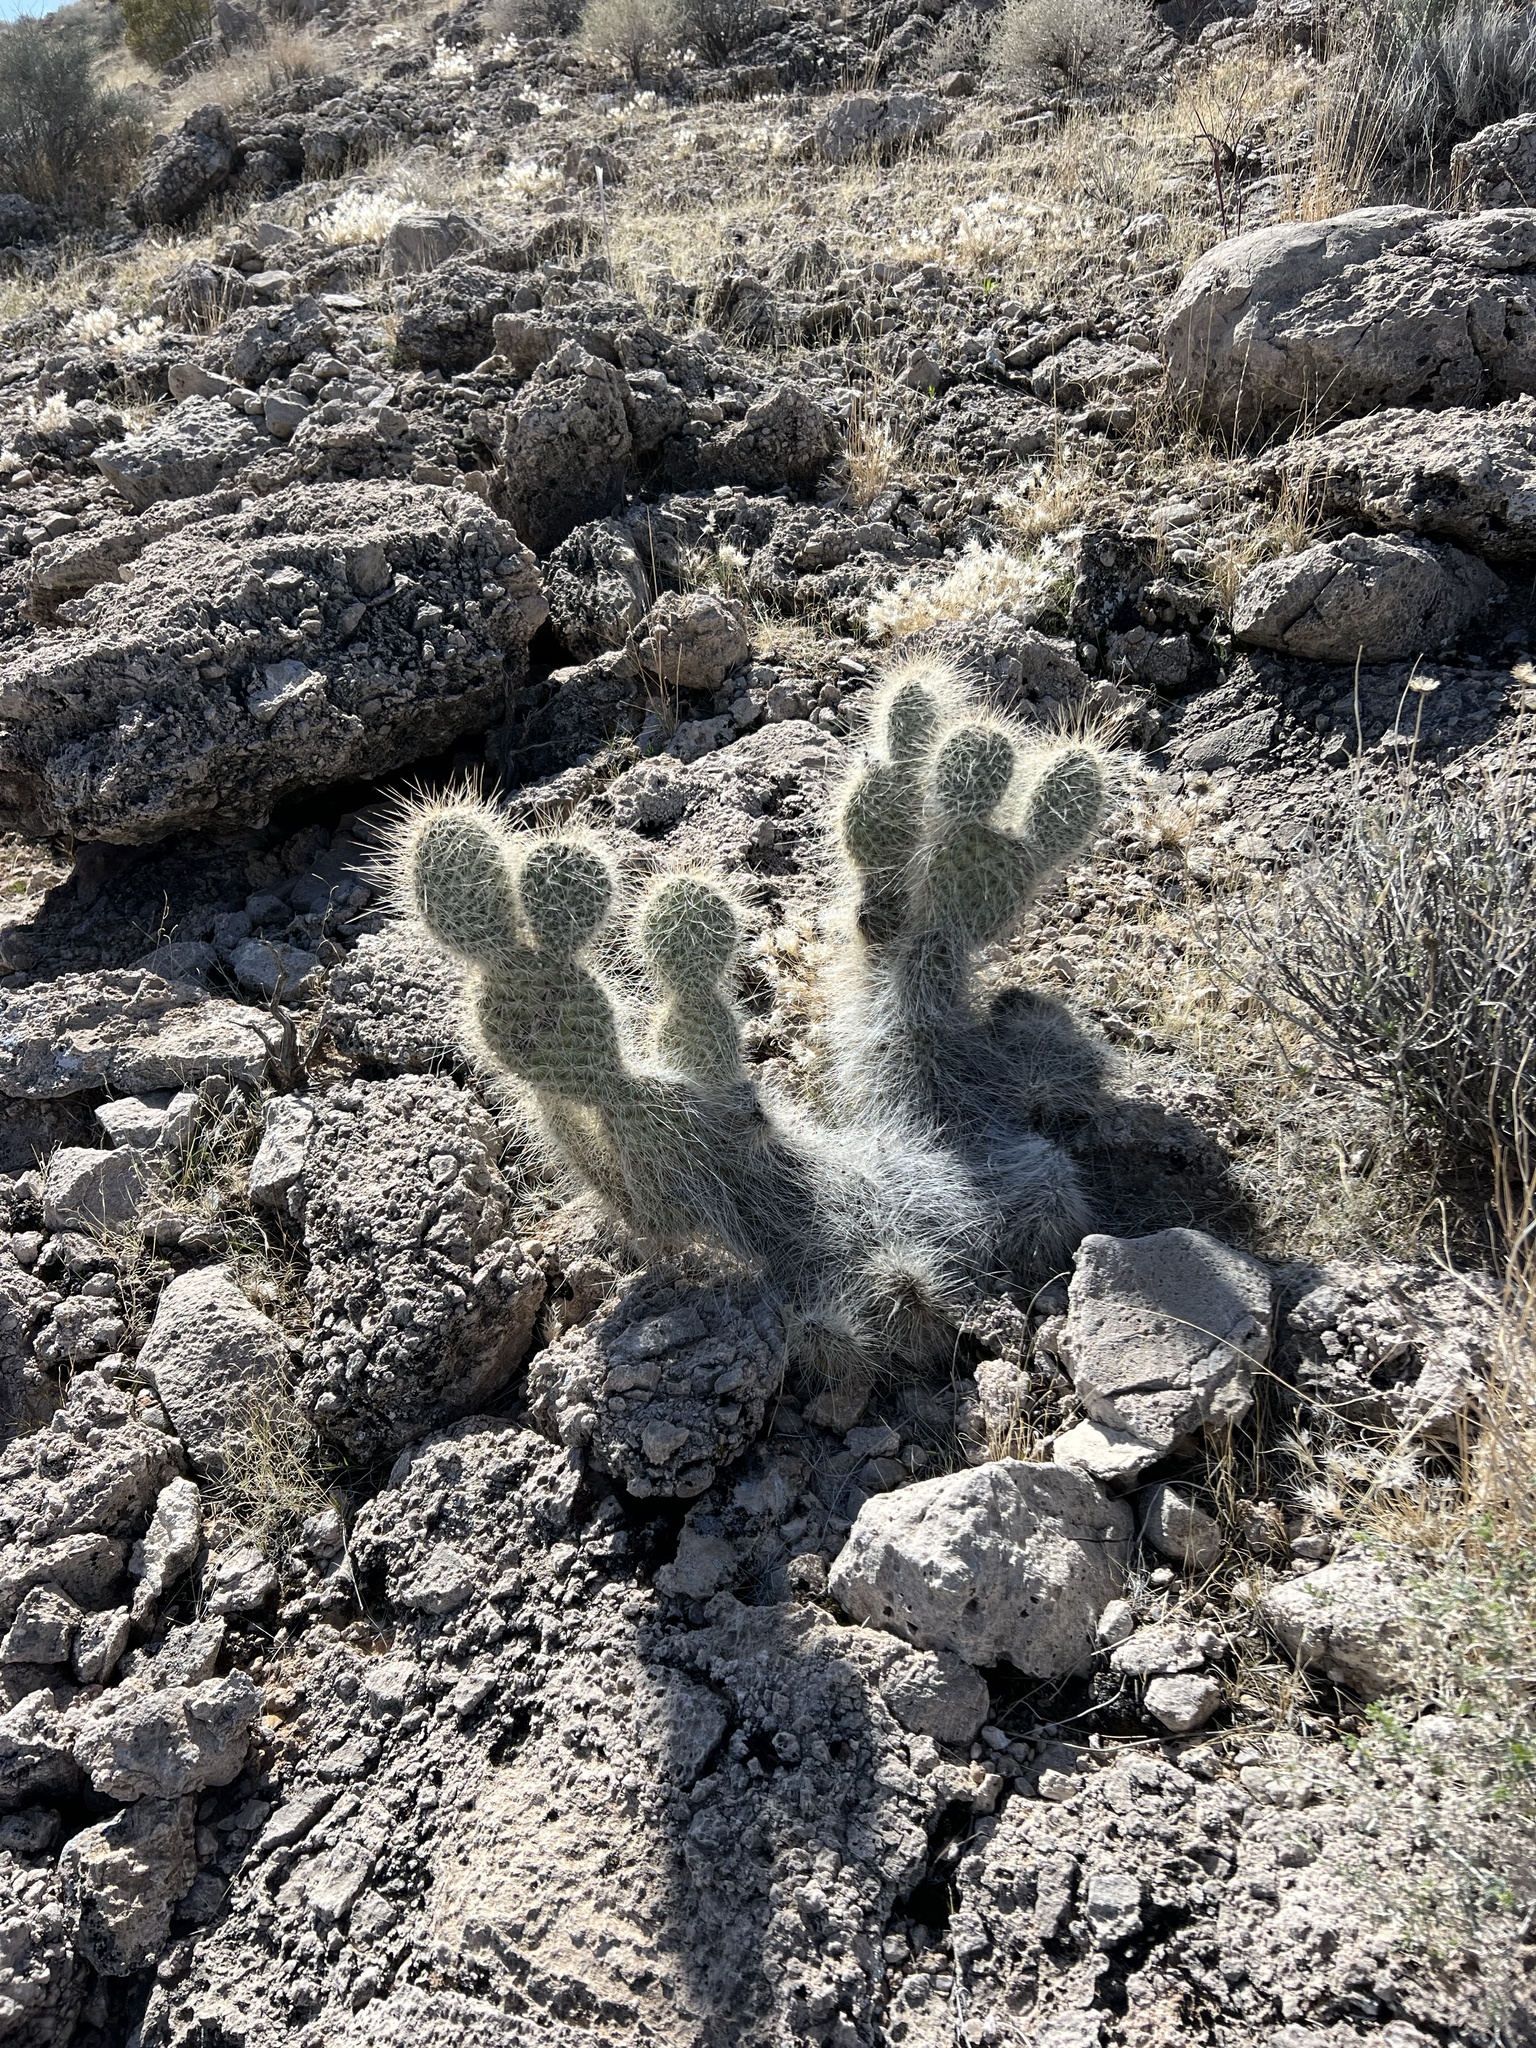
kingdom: Plantae
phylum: Tracheophyta
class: Magnoliopsida
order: Caryophyllales
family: Cactaceae
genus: Opuntia
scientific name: Opuntia polyacantha
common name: Plains prickly-pear
